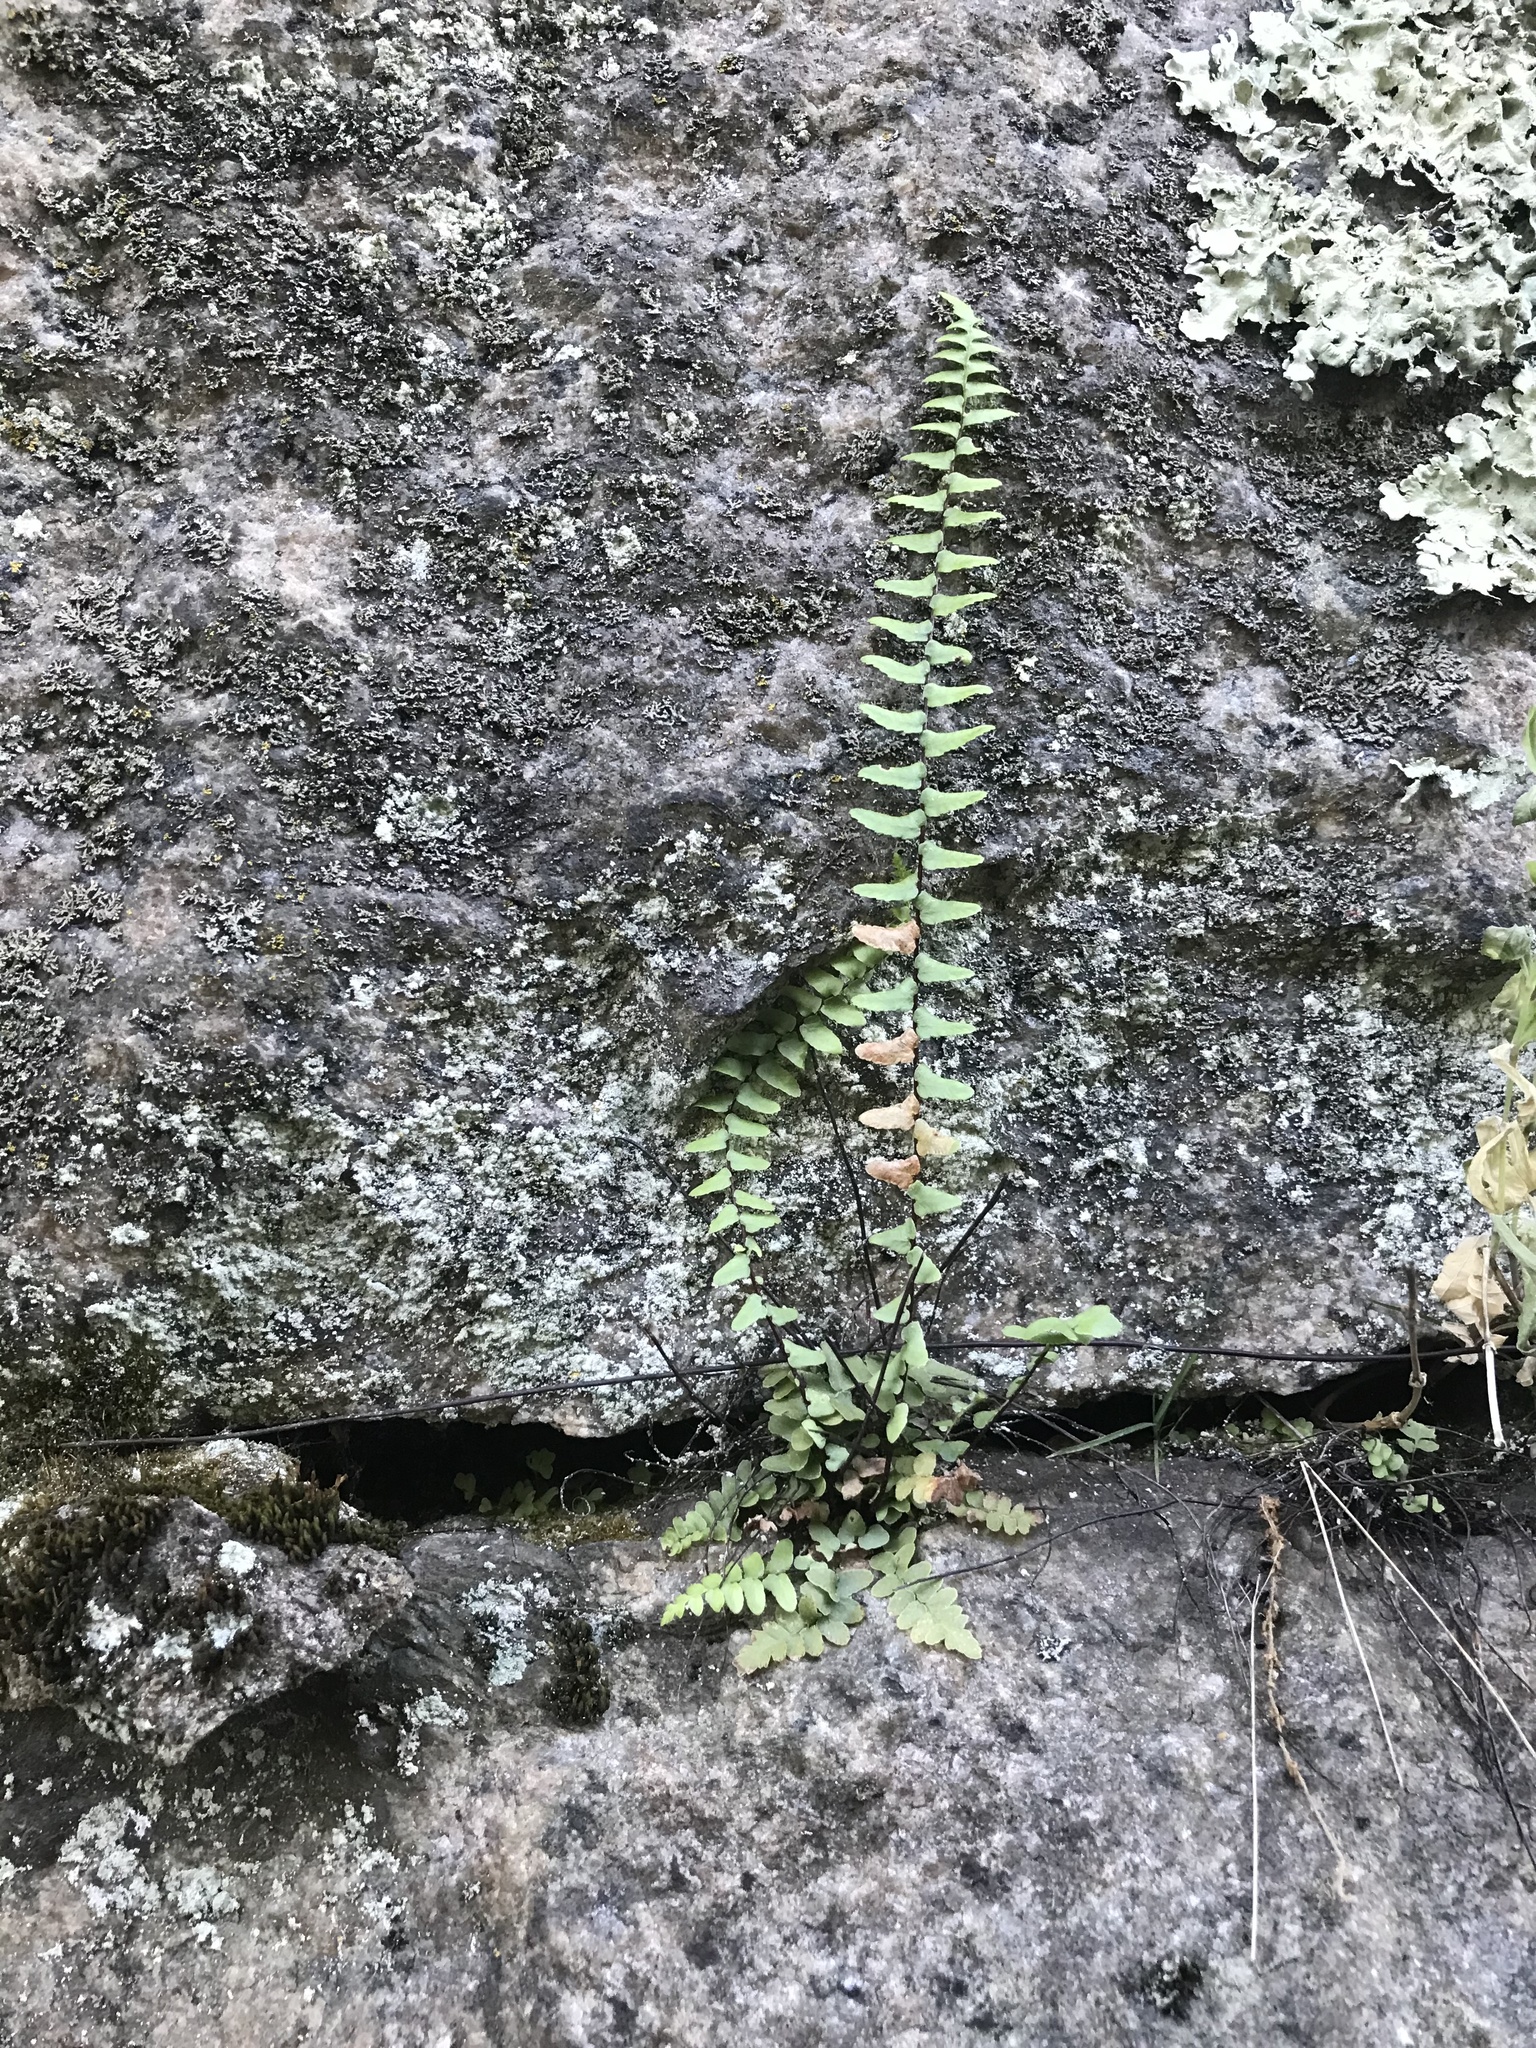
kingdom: Plantae
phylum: Tracheophyta
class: Polypodiopsida
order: Polypodiales
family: Aspleniaceae
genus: Asplenium
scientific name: Asplenium platyneuron
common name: Ebony spleenwort
